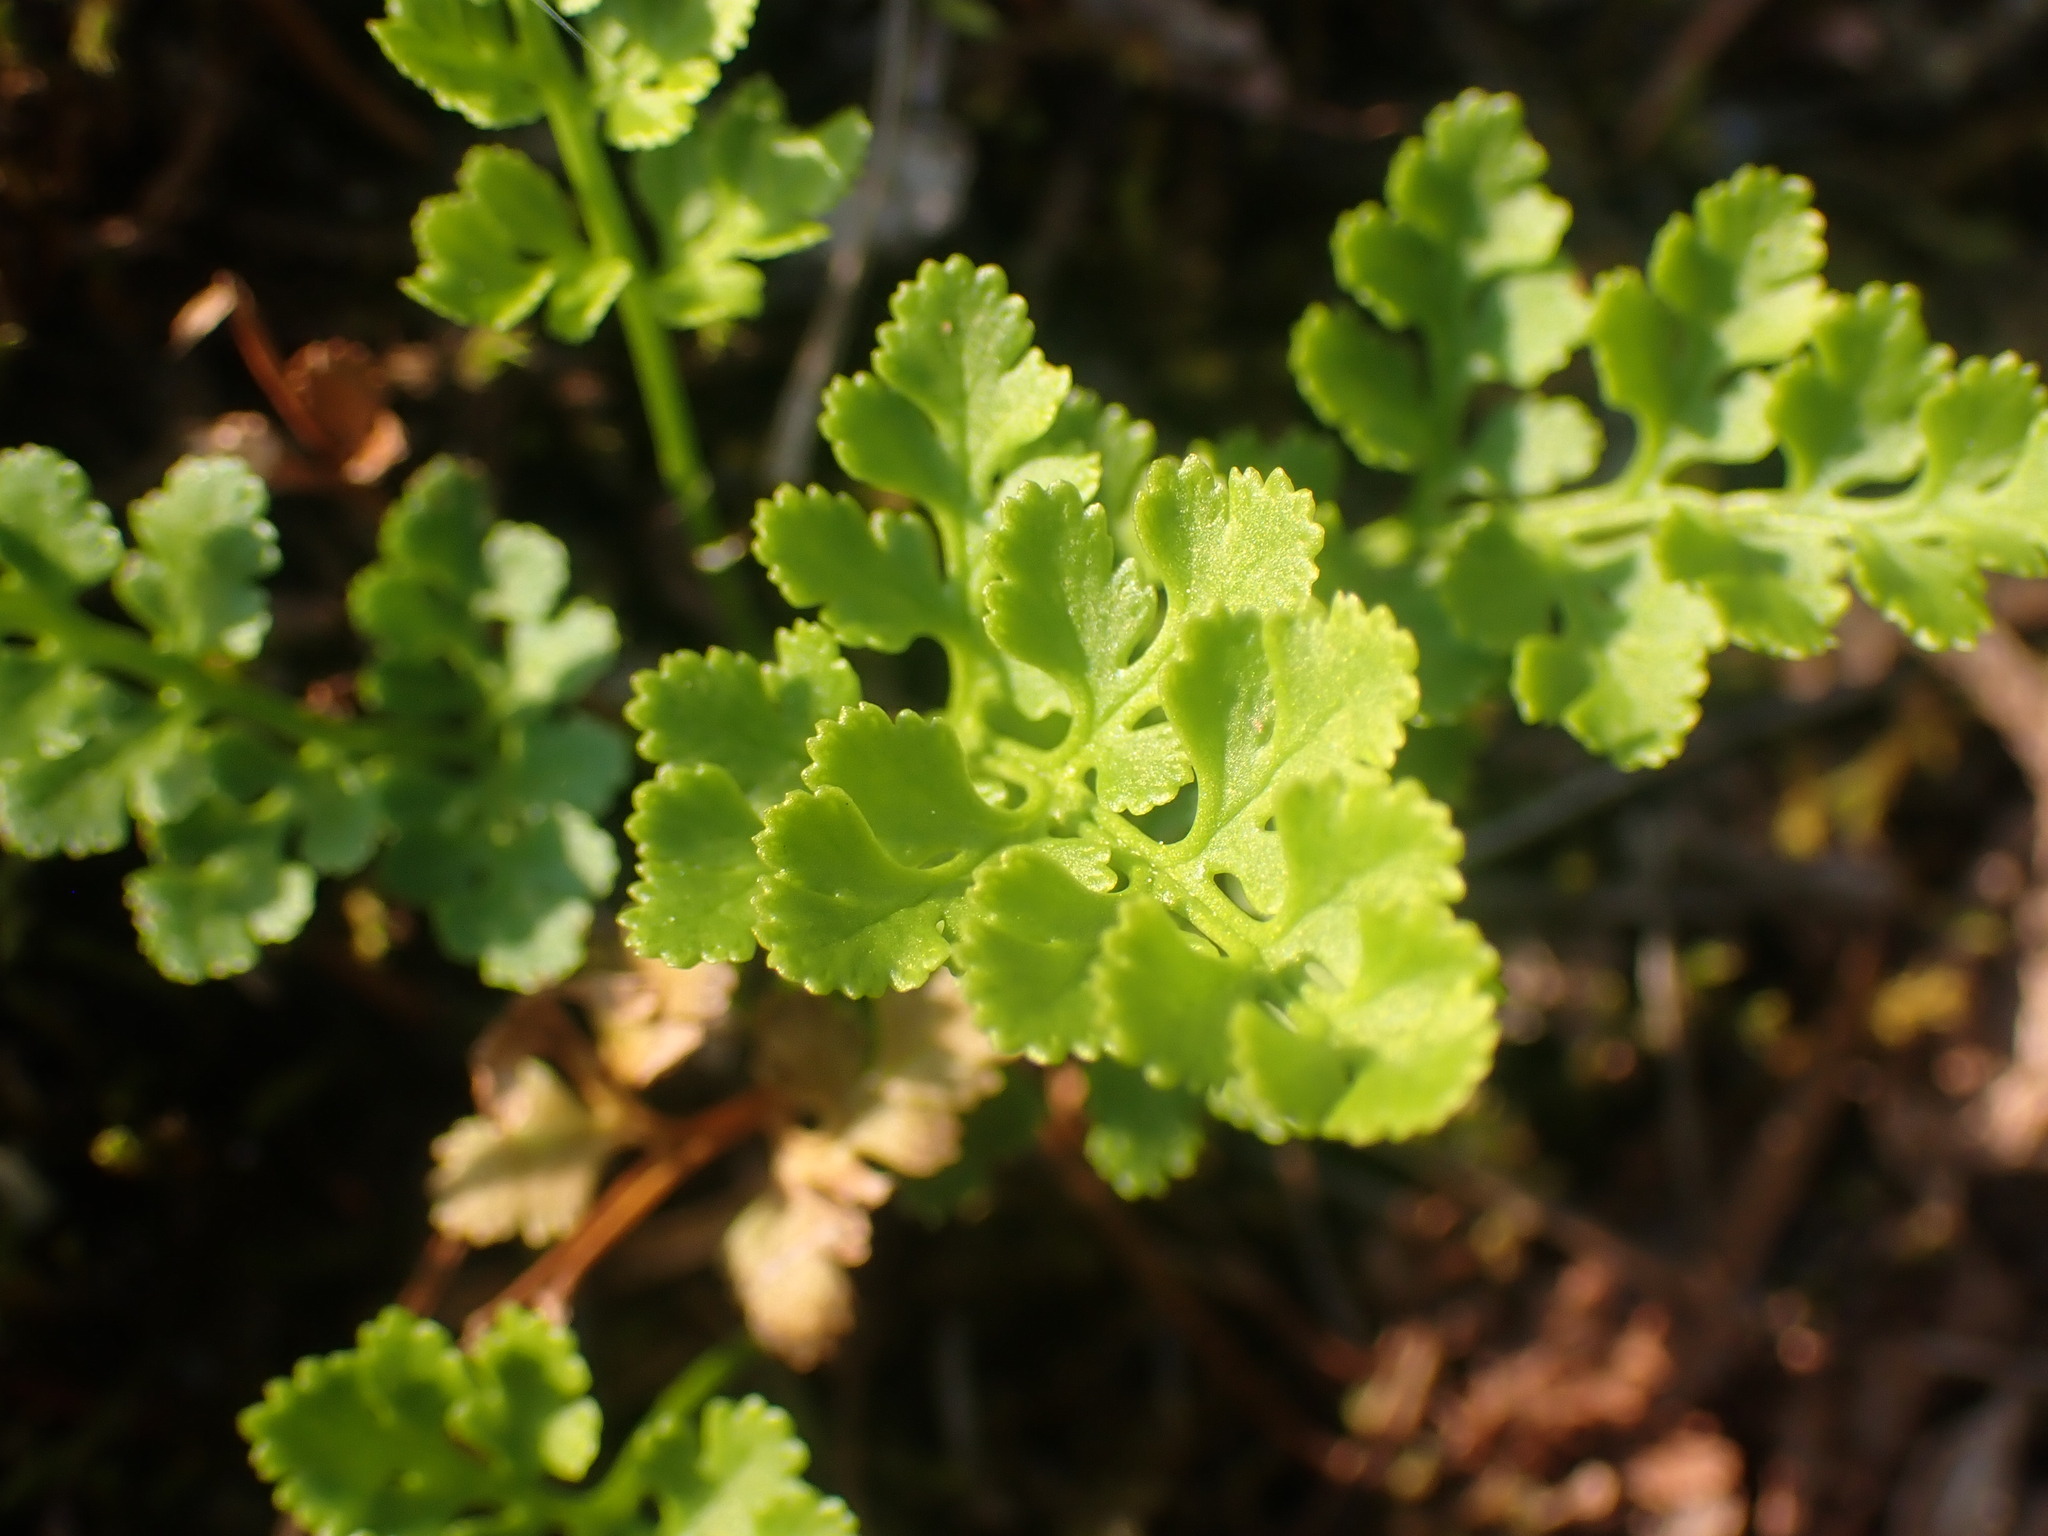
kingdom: Plantae
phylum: Tracheophyta
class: Polypodiopsida
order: Polypodiales
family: Pteridaceae
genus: Cryptogramma
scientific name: Cryptogramma acrostichoides
